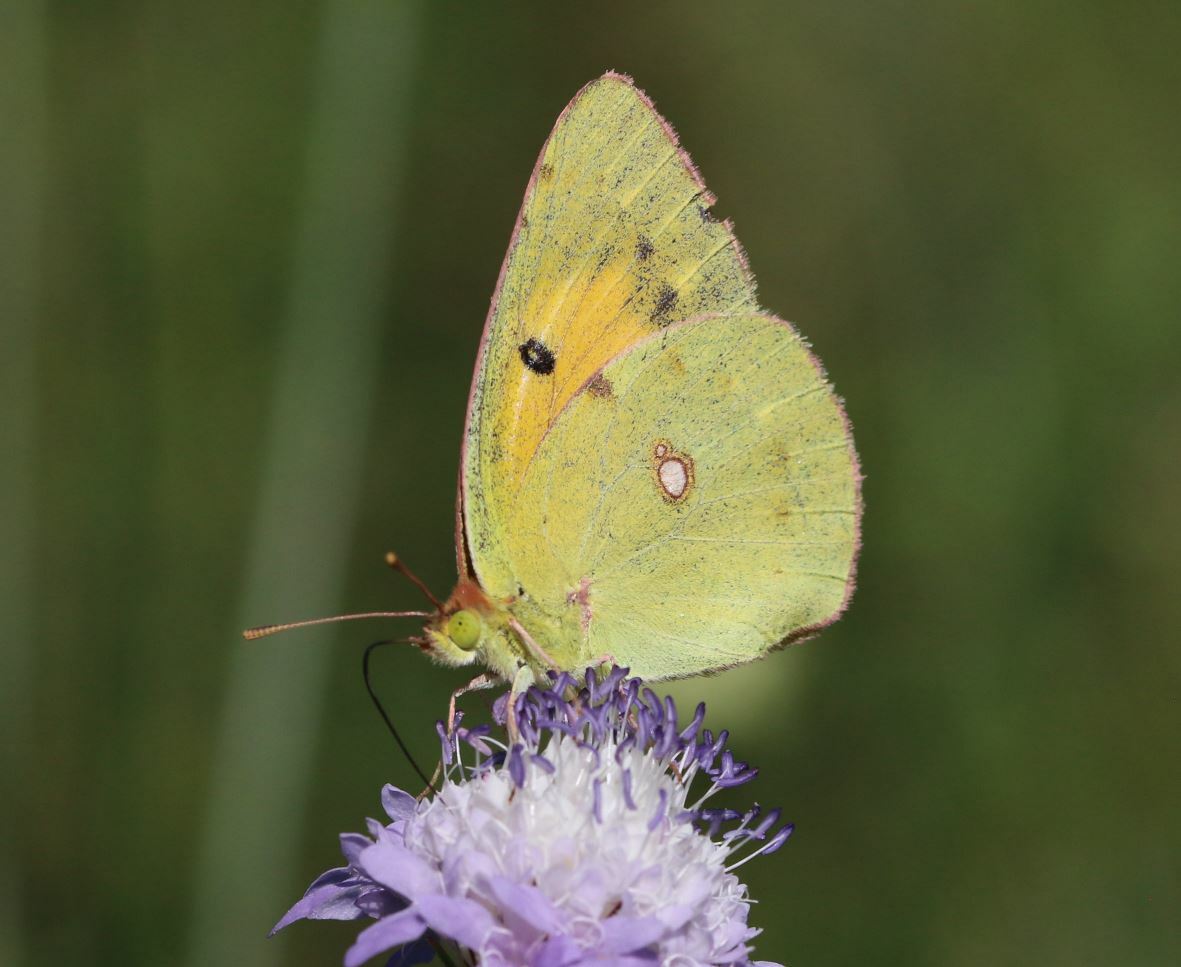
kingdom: Animalia
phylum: Arthropoda
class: Insecta
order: Lepidoptera
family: Pieridae
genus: Colias
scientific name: Colias croceus
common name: Clouded yellow
